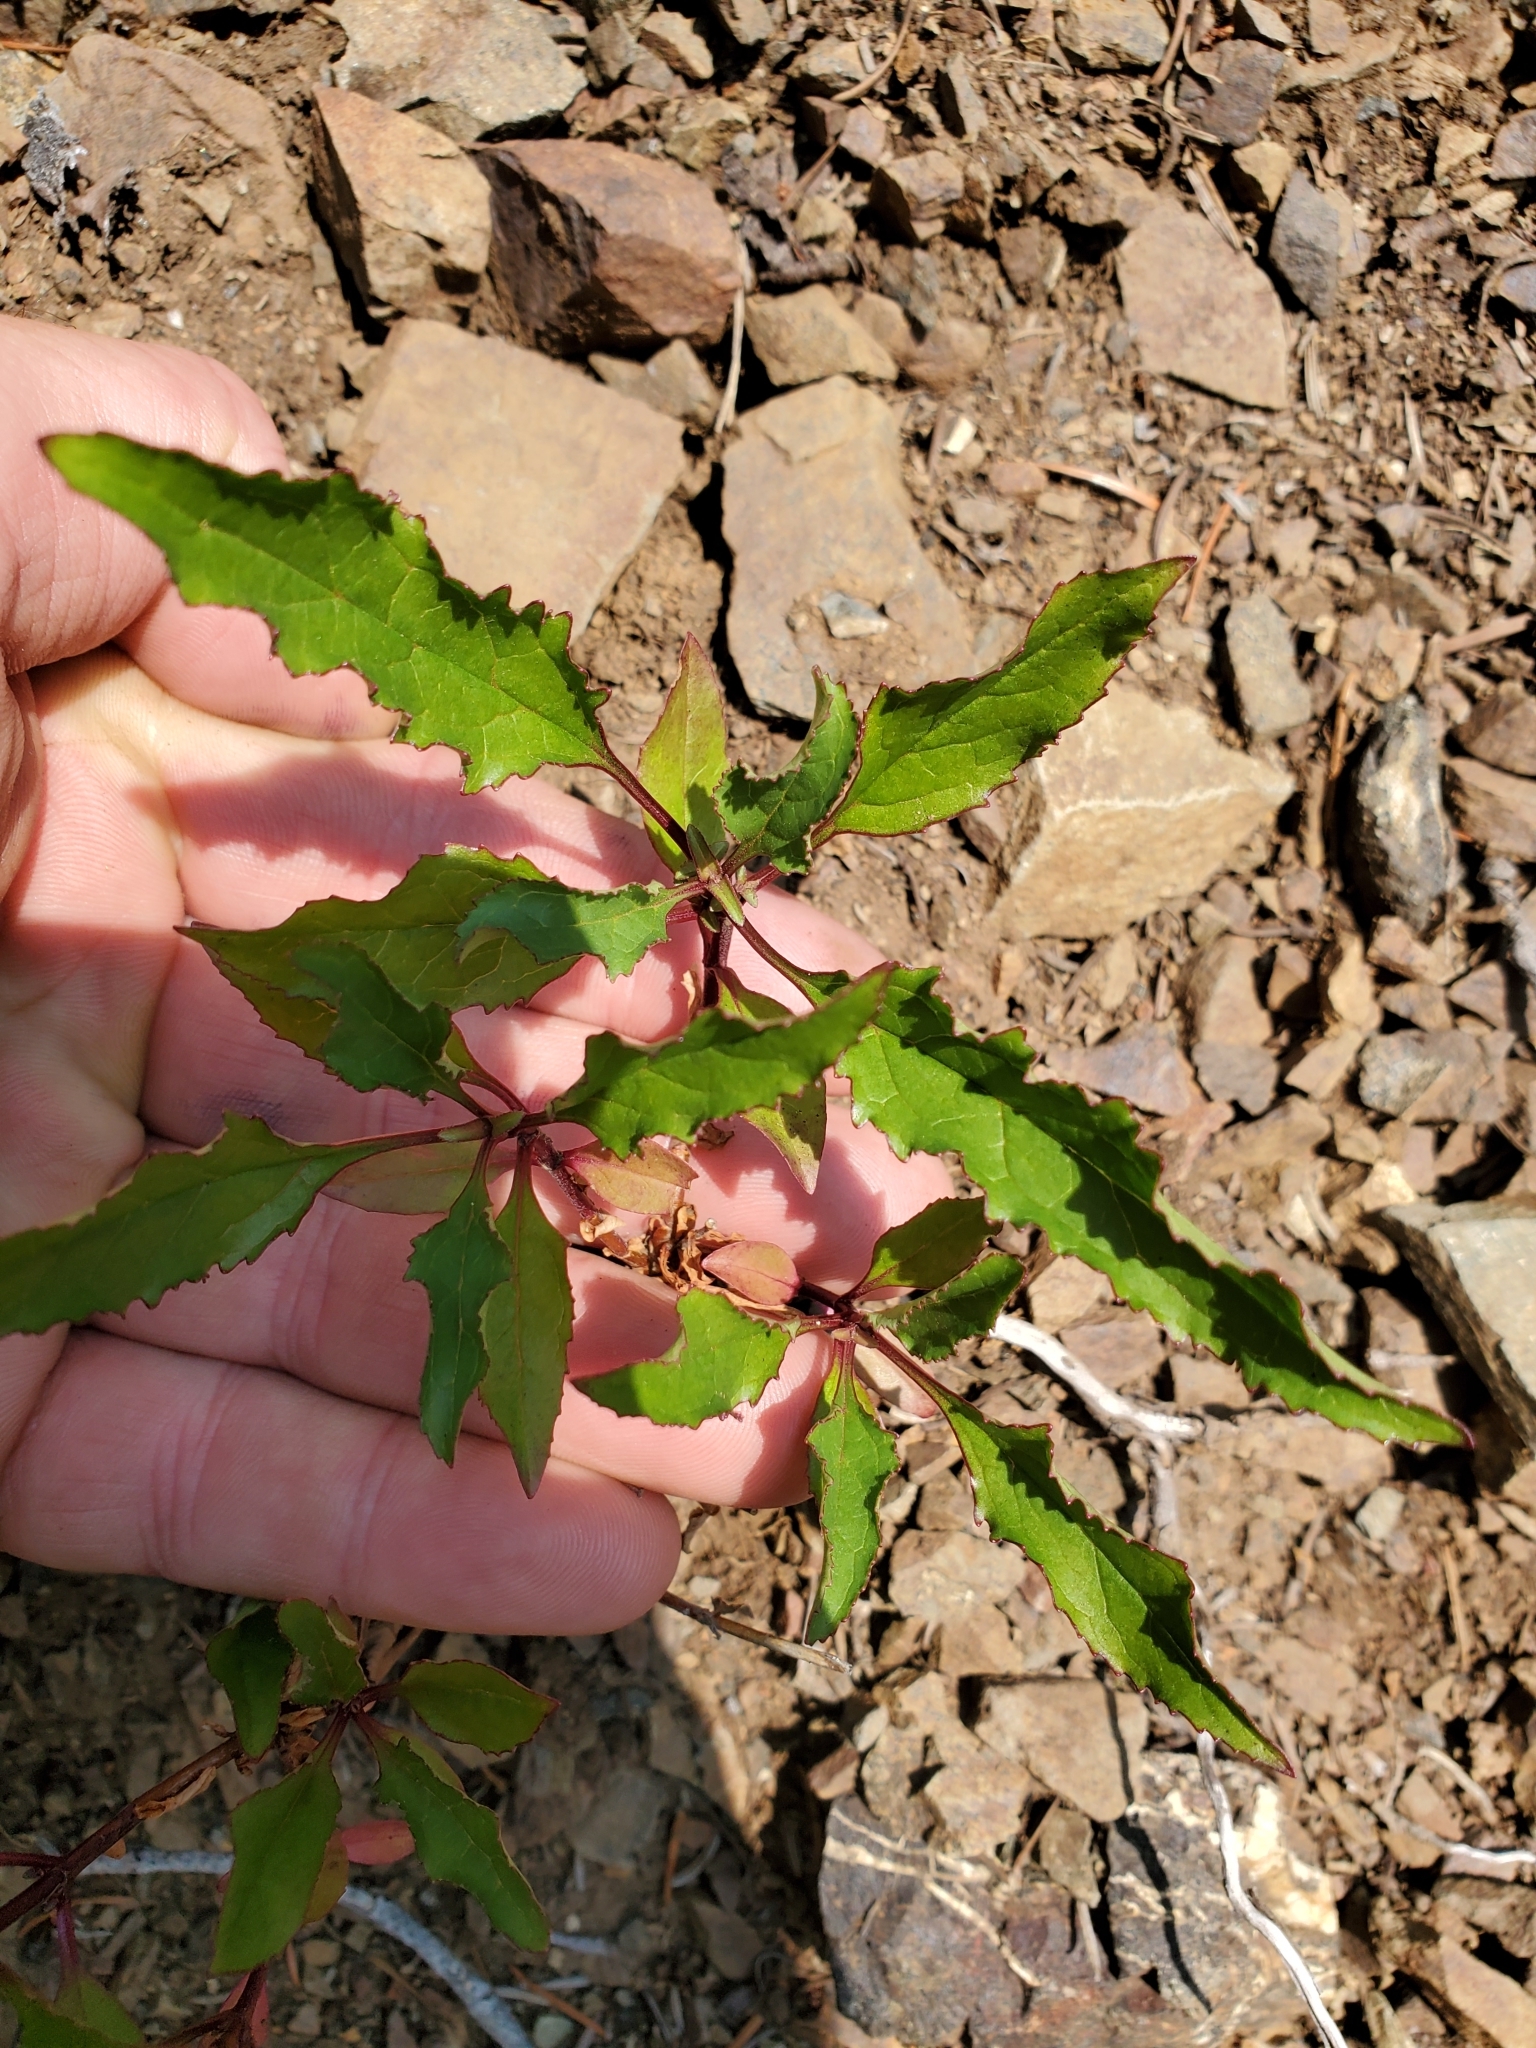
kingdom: Plantae
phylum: Tracheophyta
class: Magnoliopsida
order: Lamiales
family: Plantaginaceae
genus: Penstemon
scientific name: Penstemon serrulatus
